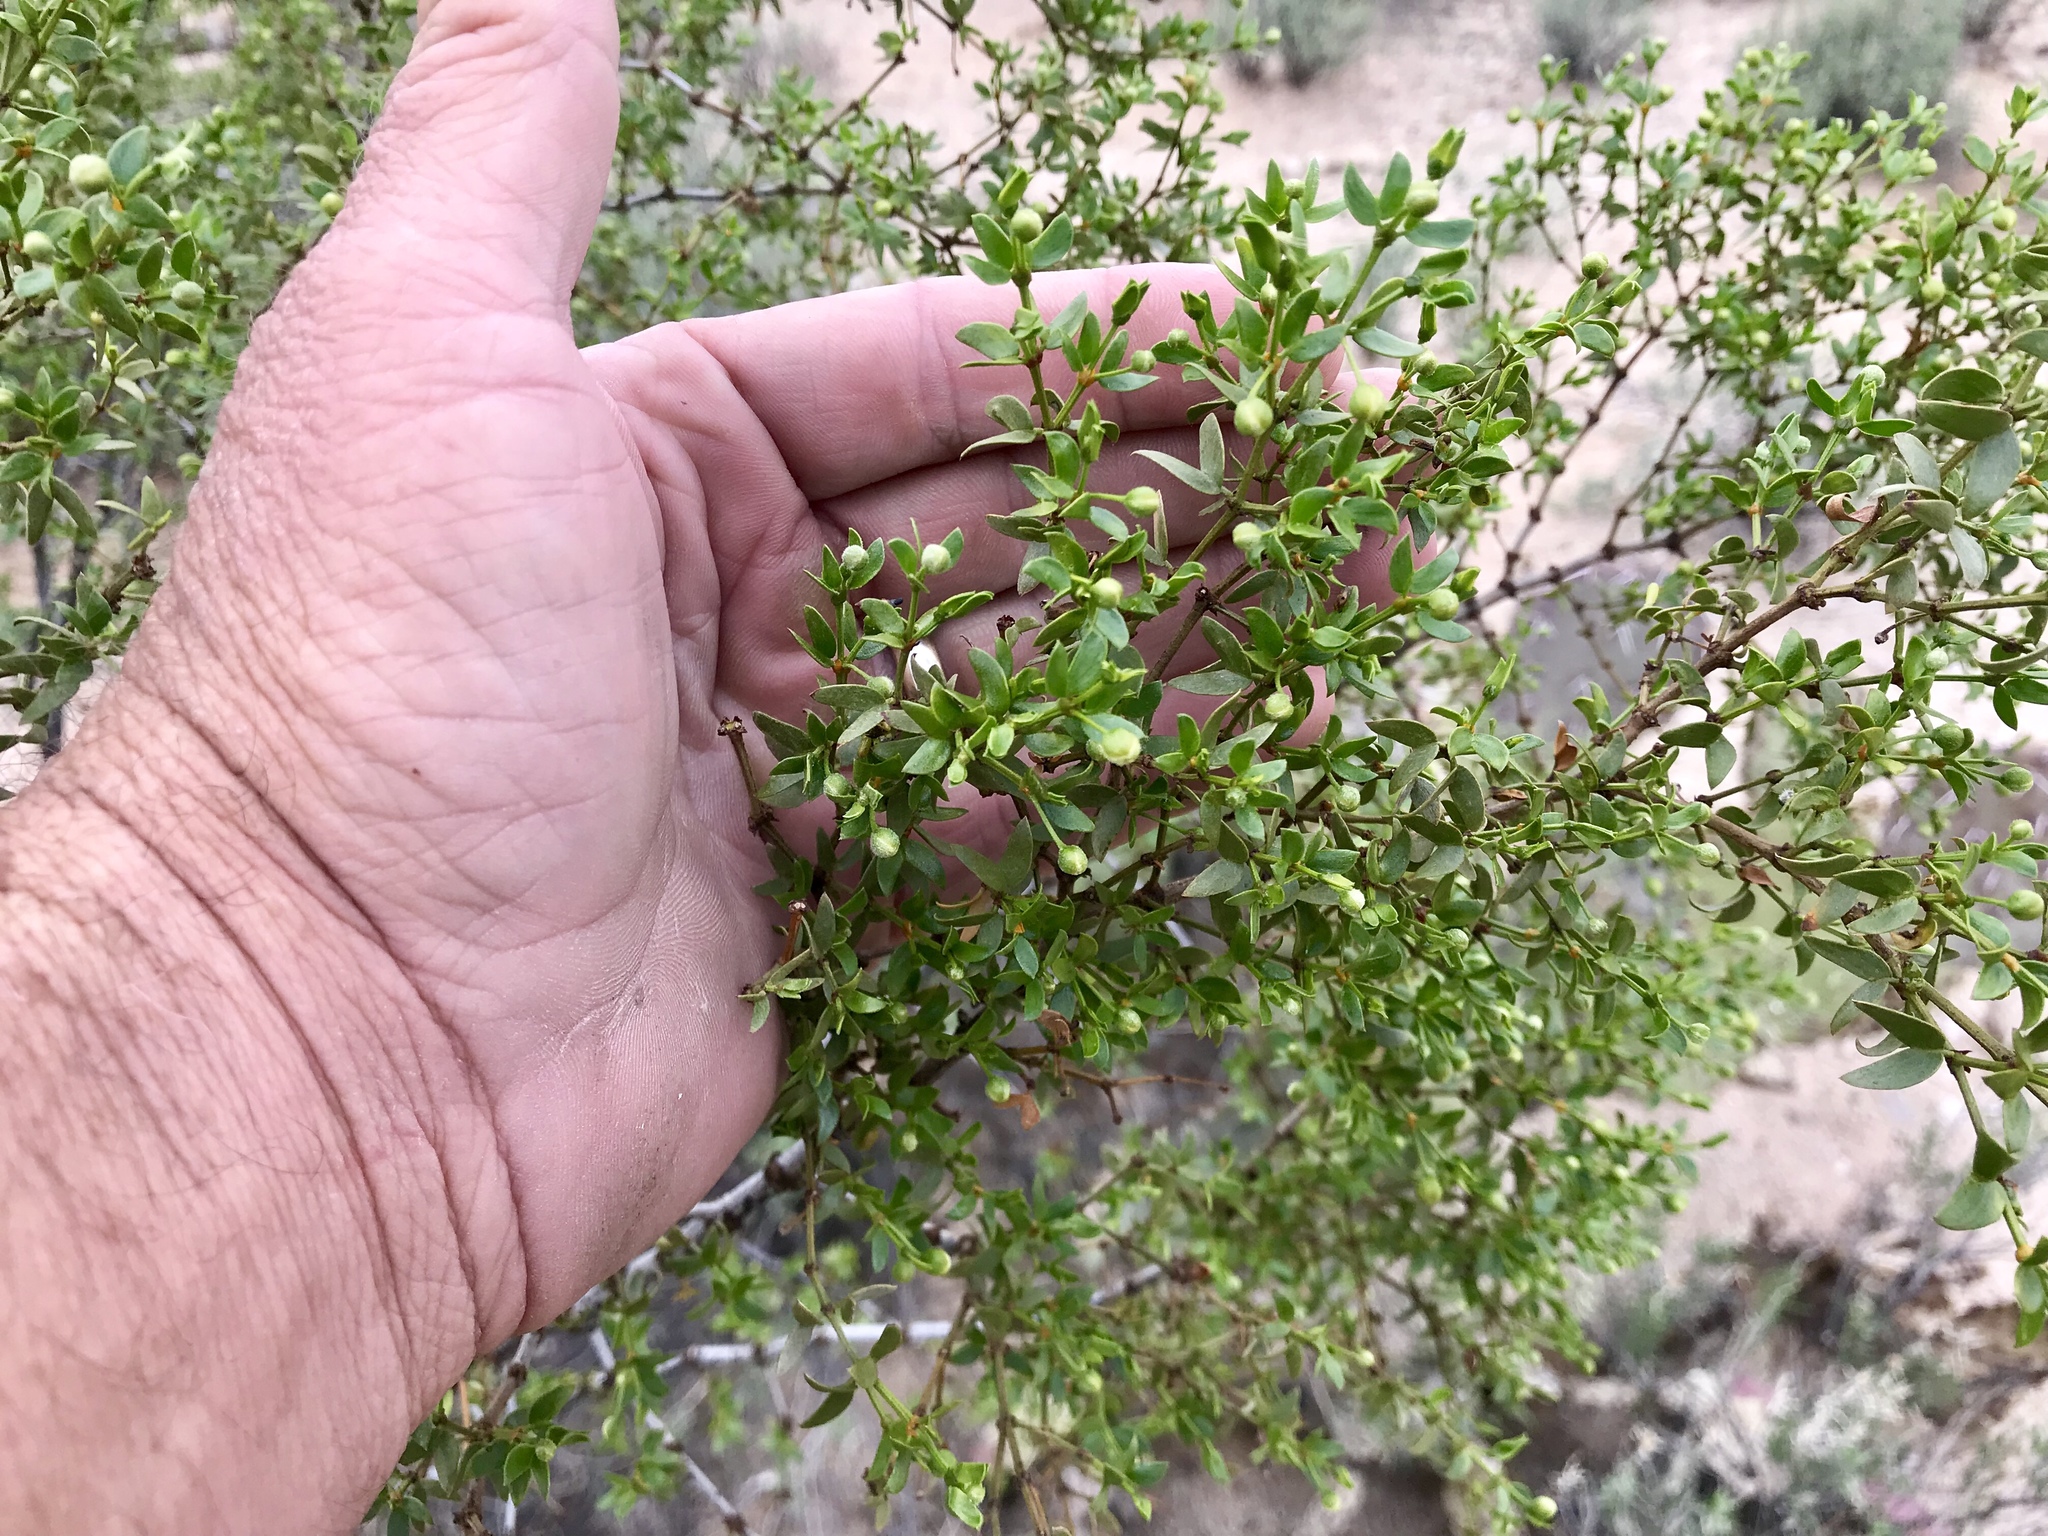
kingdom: Plantae
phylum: Tracheophyta
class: Magnoliopsida
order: Zygophyllales
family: Zygophyllaceae
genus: Larrea
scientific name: Larrea tridentata
